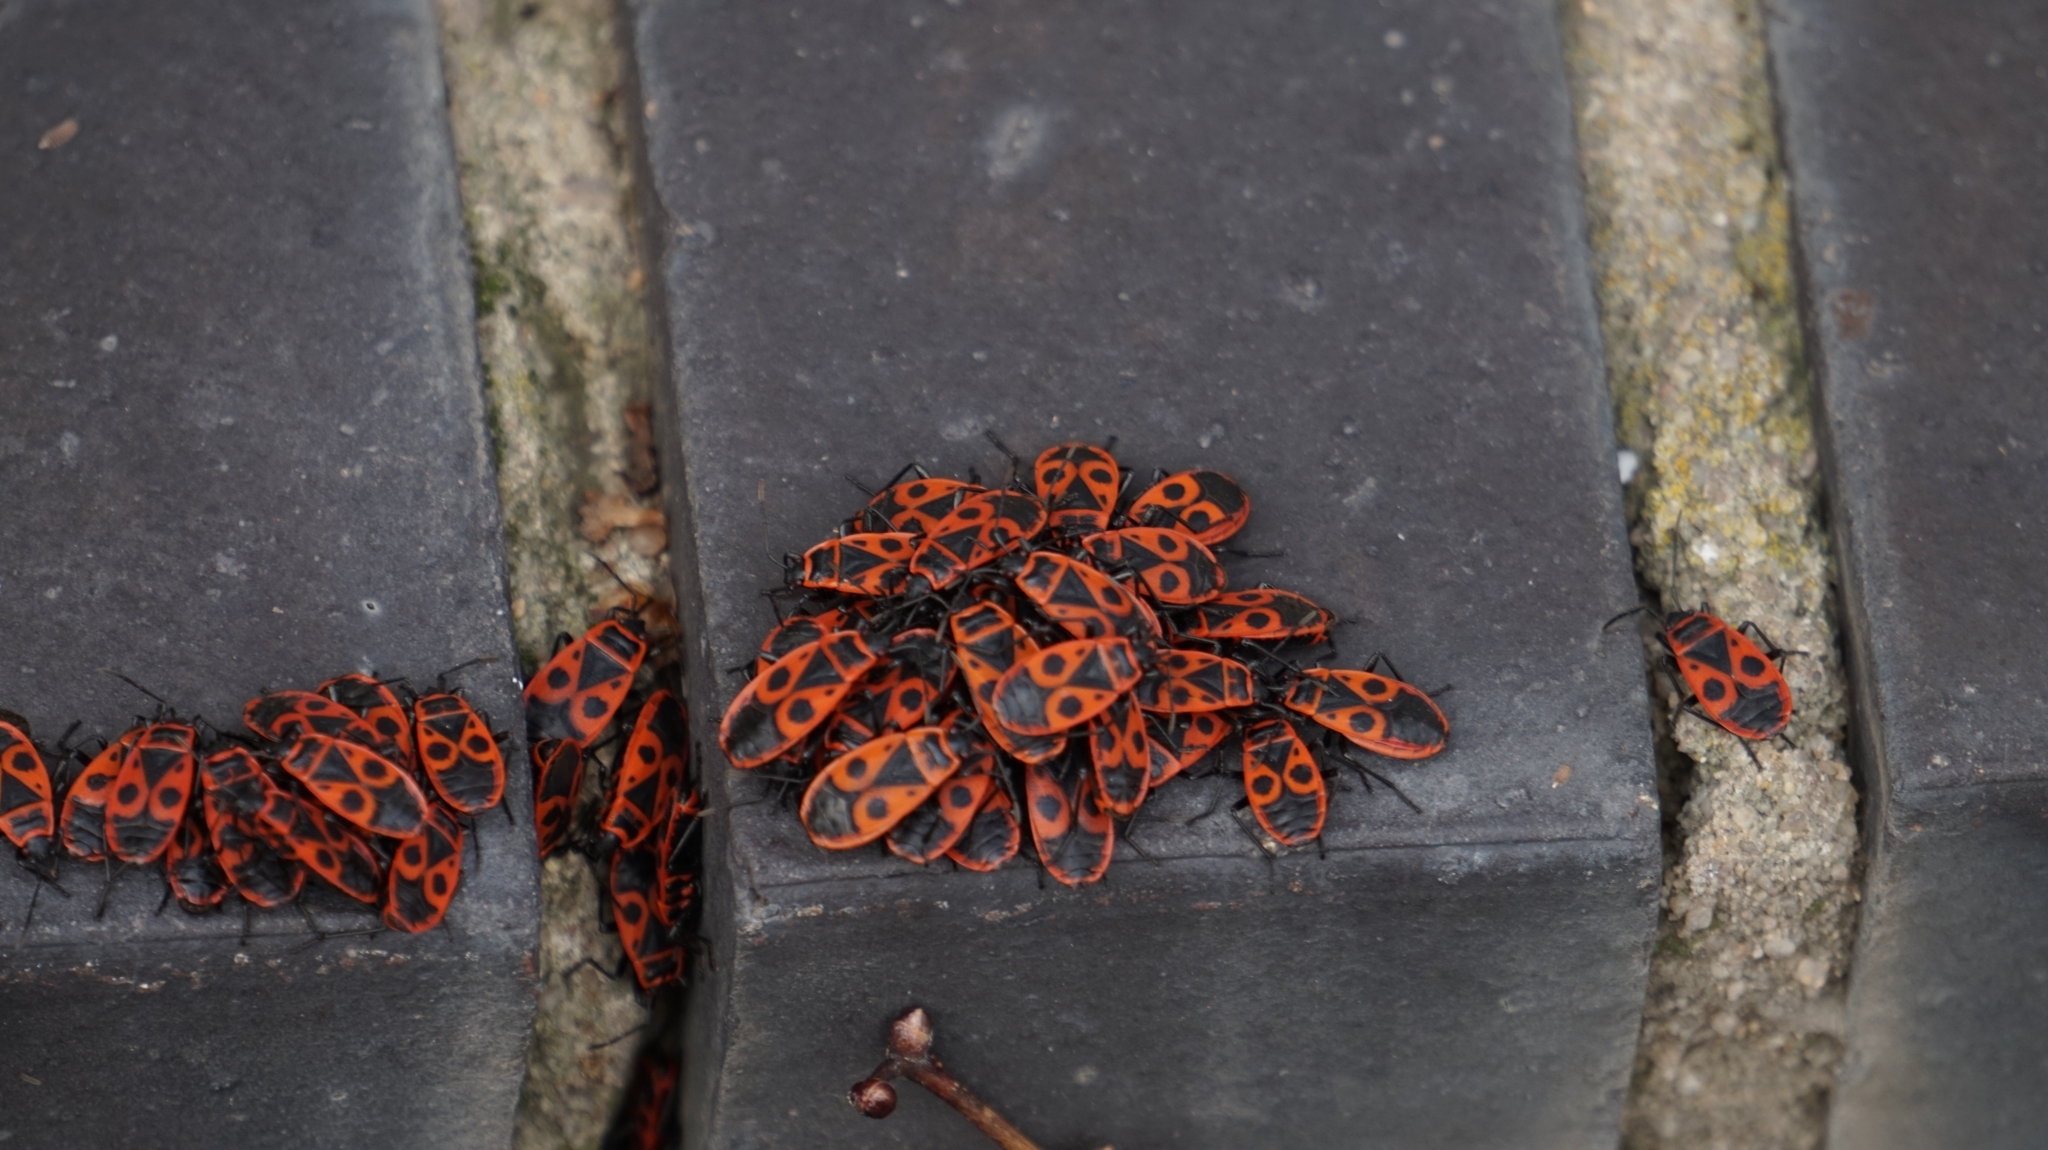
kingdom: Animalia
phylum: Arthropoda
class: Insecta
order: Hemiptera
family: Pyrrhocoridae
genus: Pyrrhocoris
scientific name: Pyrrhocoris apterus
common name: Firebug
